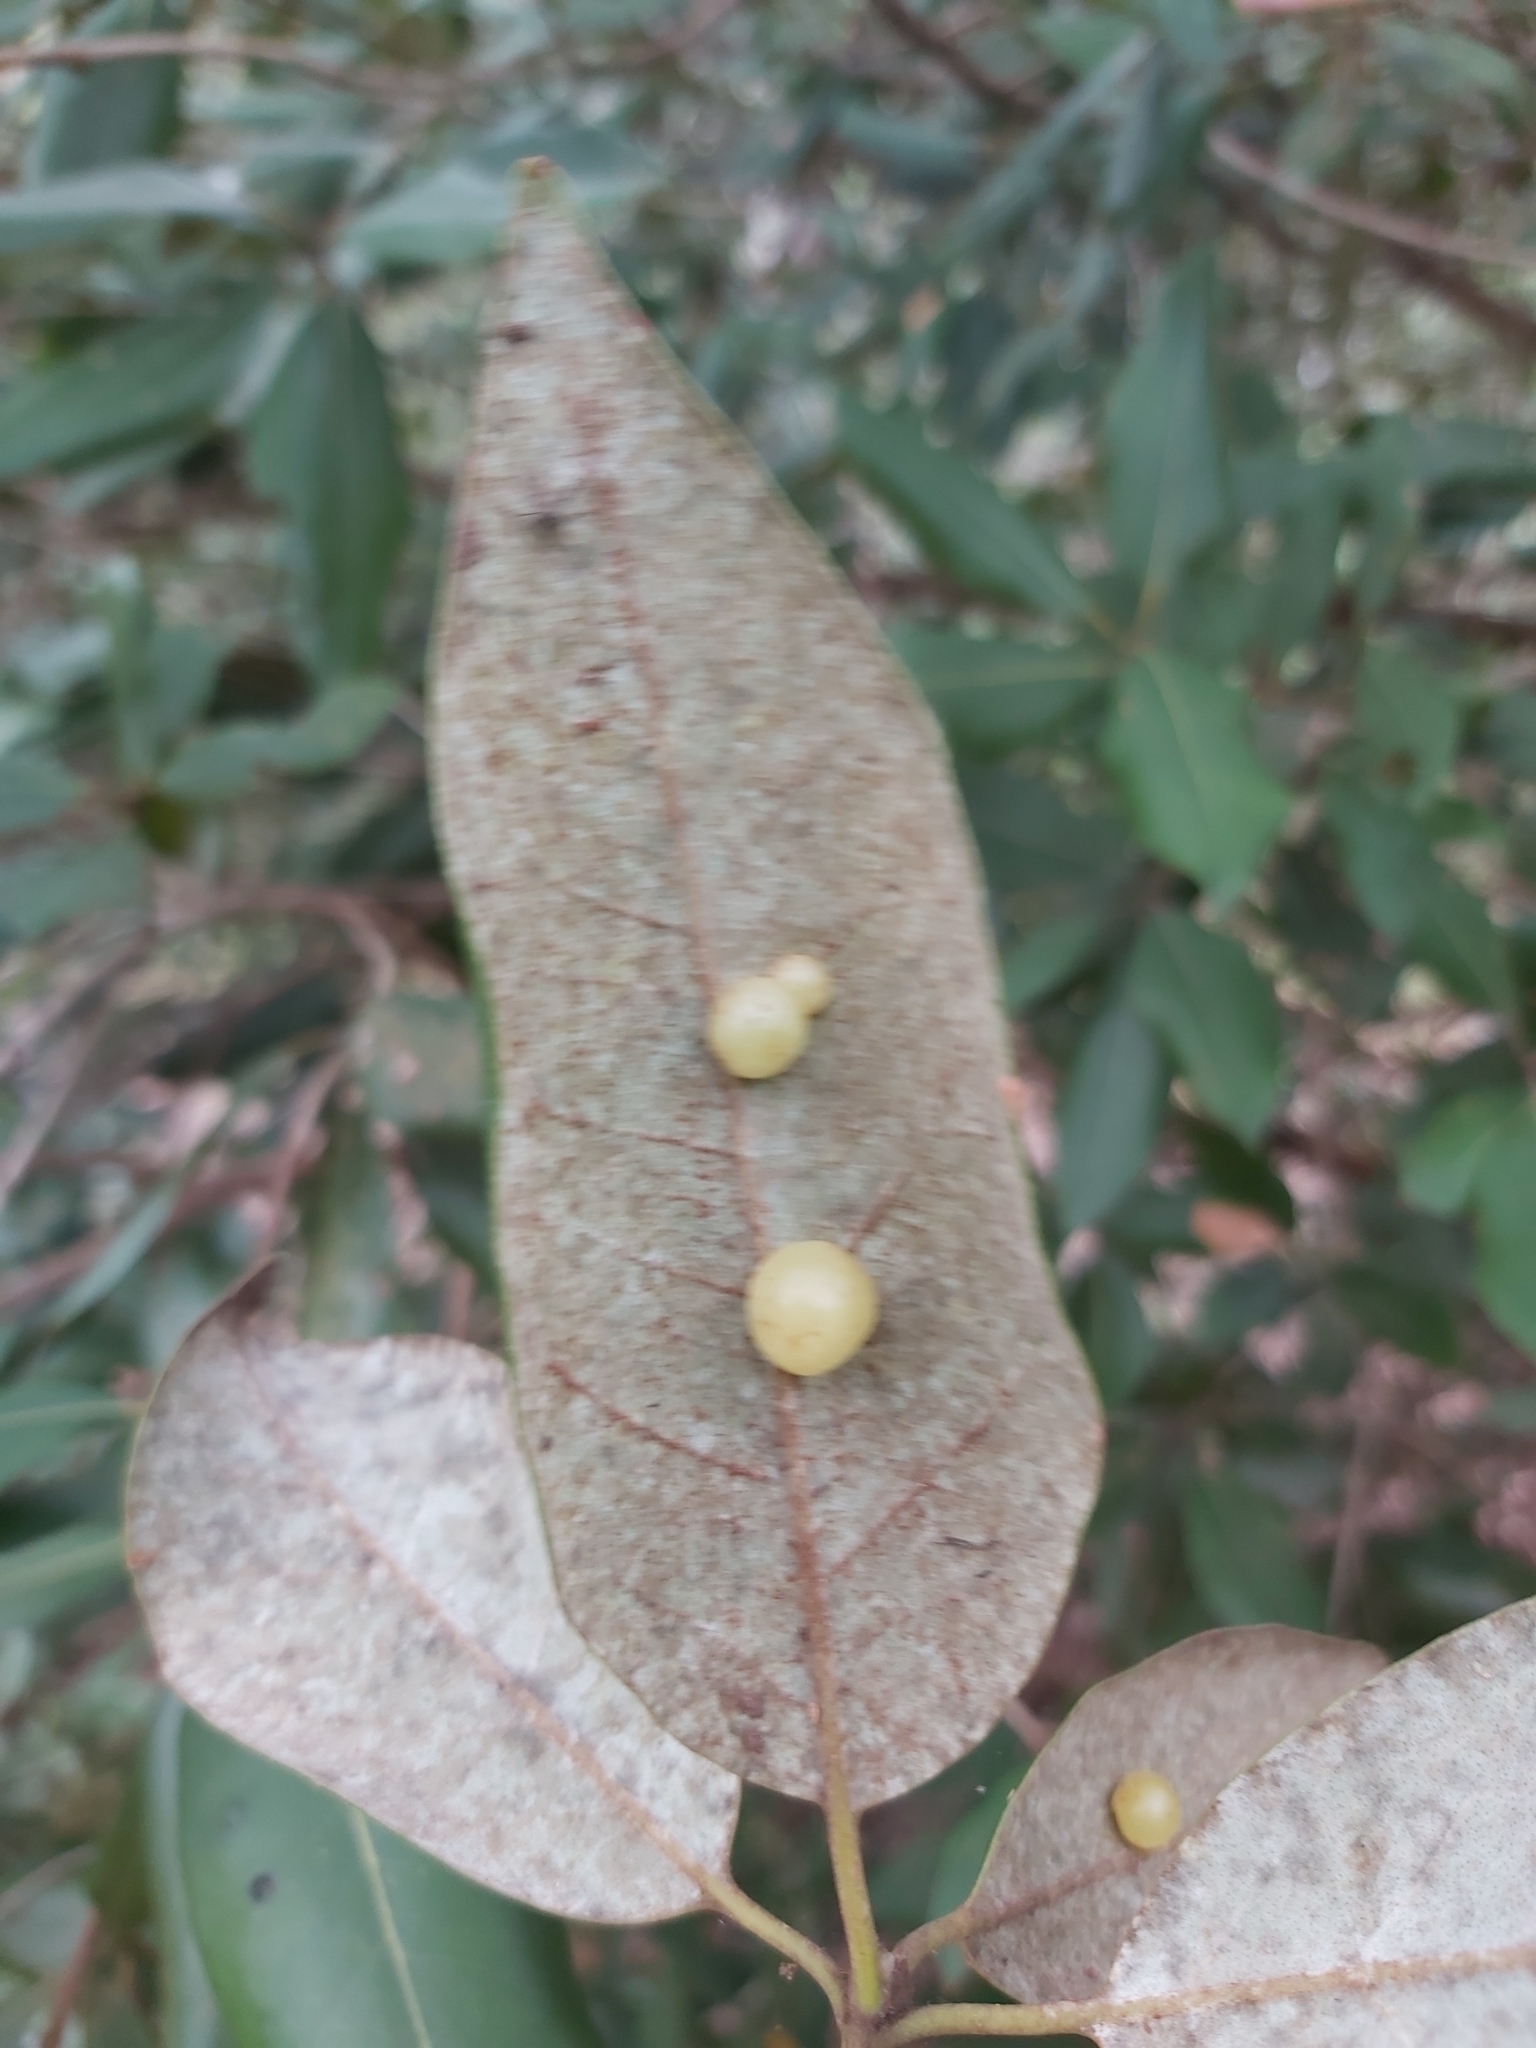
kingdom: Plantae
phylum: Tracheophyta
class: Magnoliopsida
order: Myrtales
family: Myrtaceae
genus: Syncarpia
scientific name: Syncarpia glomulifera
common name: Turpentine tree
